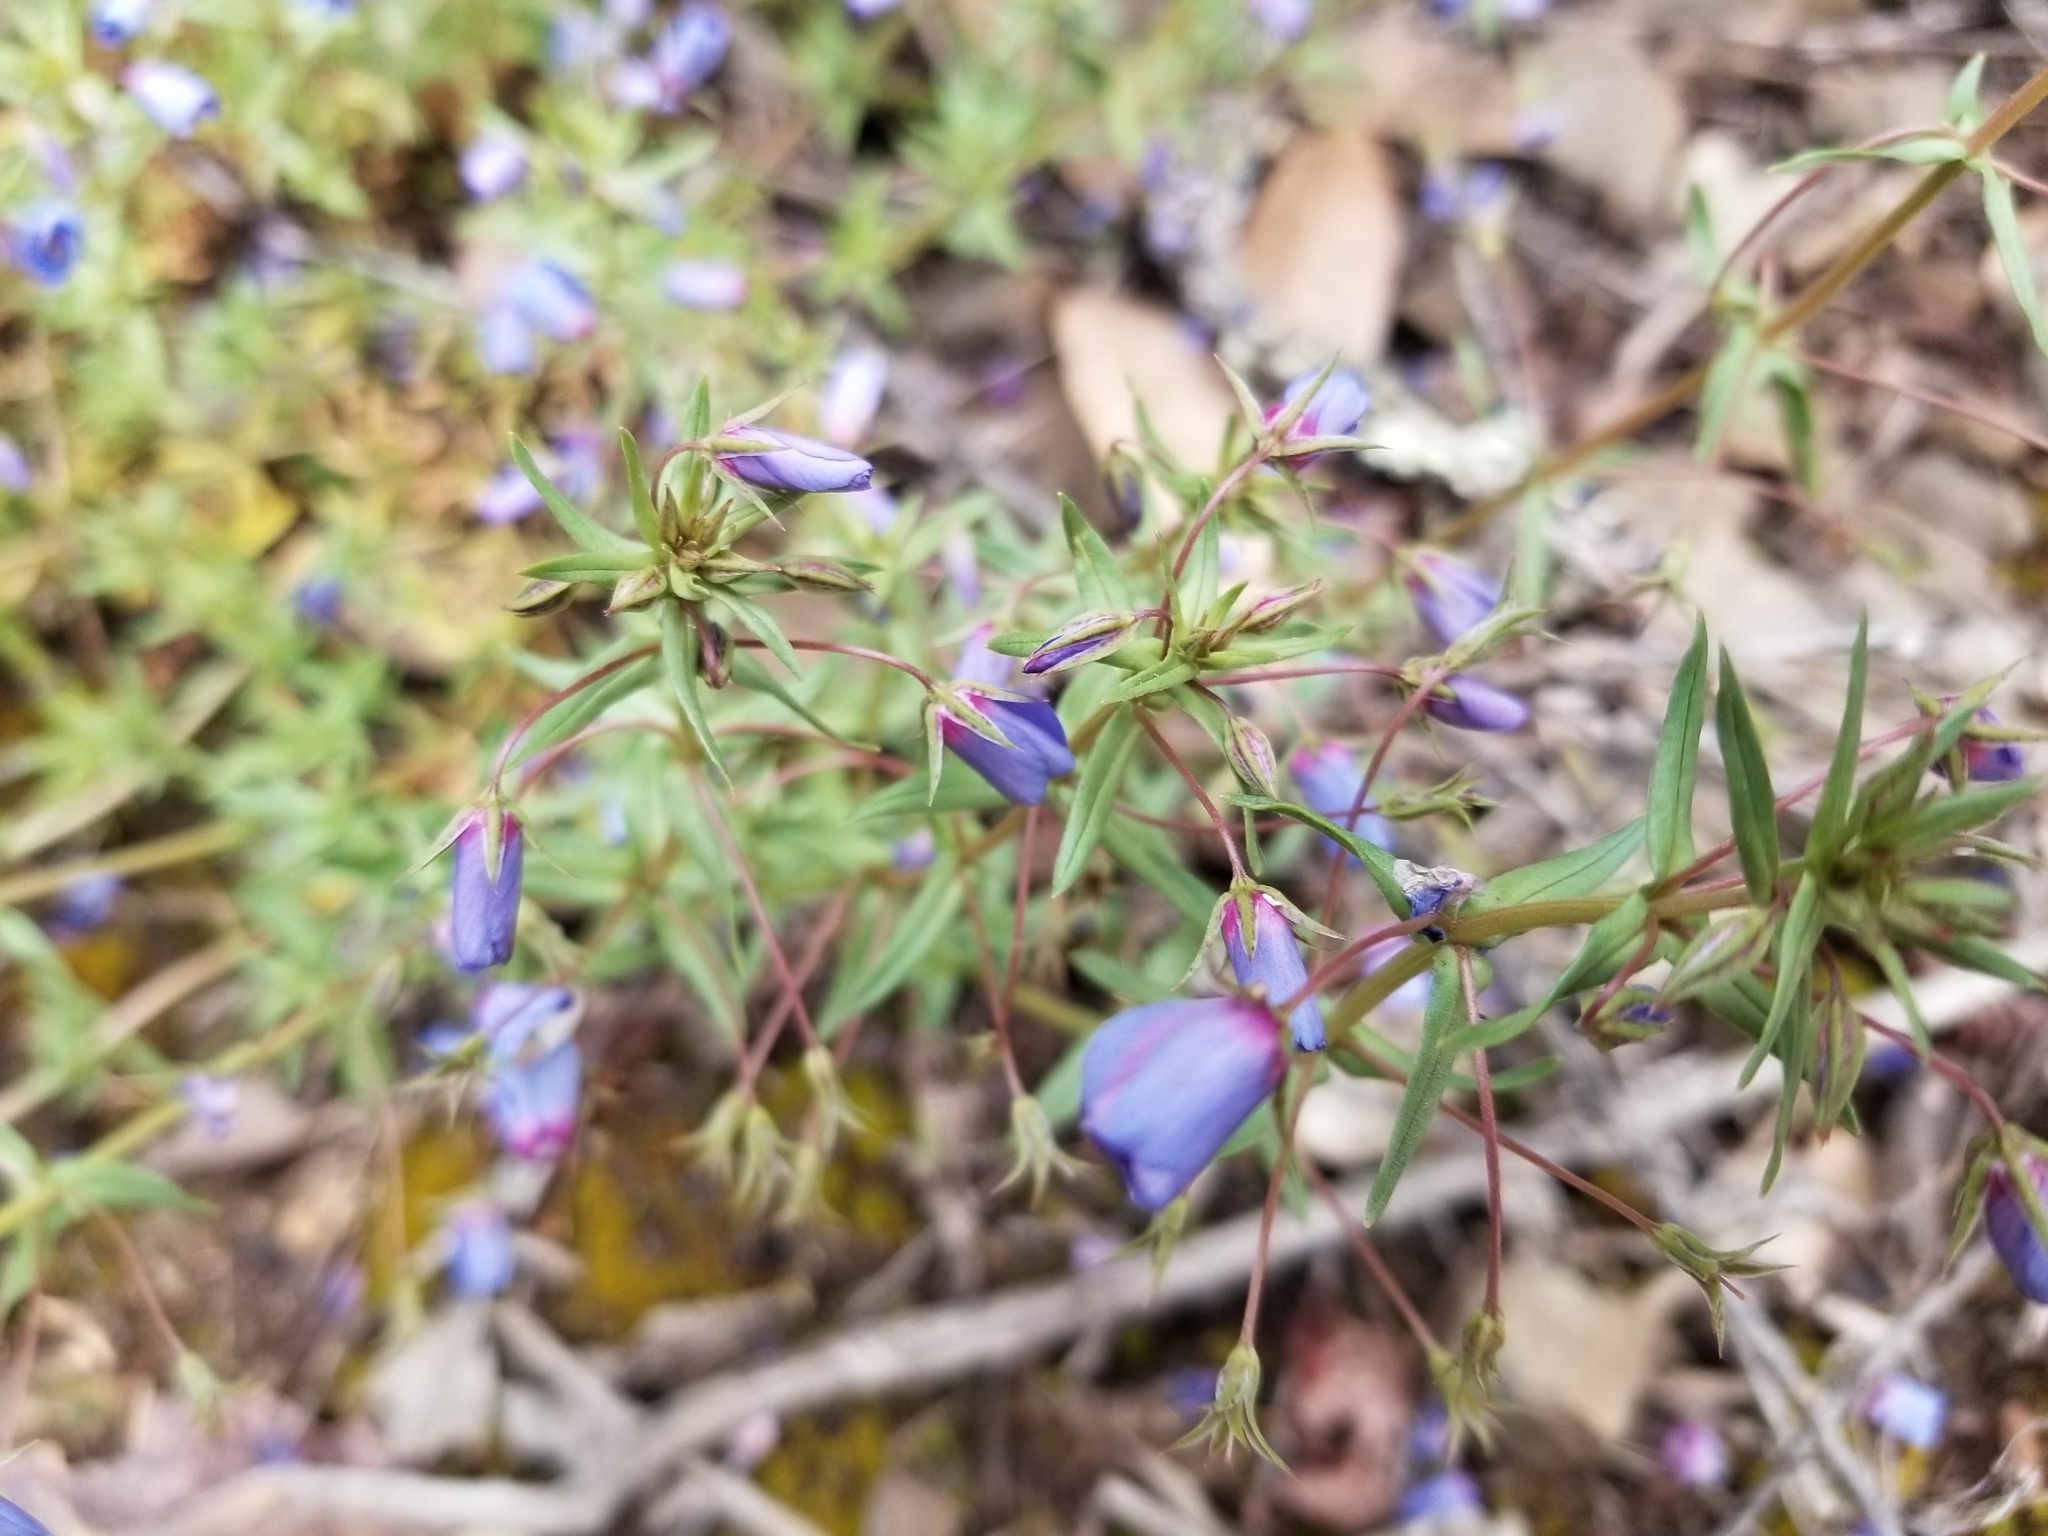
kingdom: Plantae
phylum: Tracheophyta
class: Magnoliopsida
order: Ericales
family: Primulaceae
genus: Lysimachia
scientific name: Lysimachia monelli
